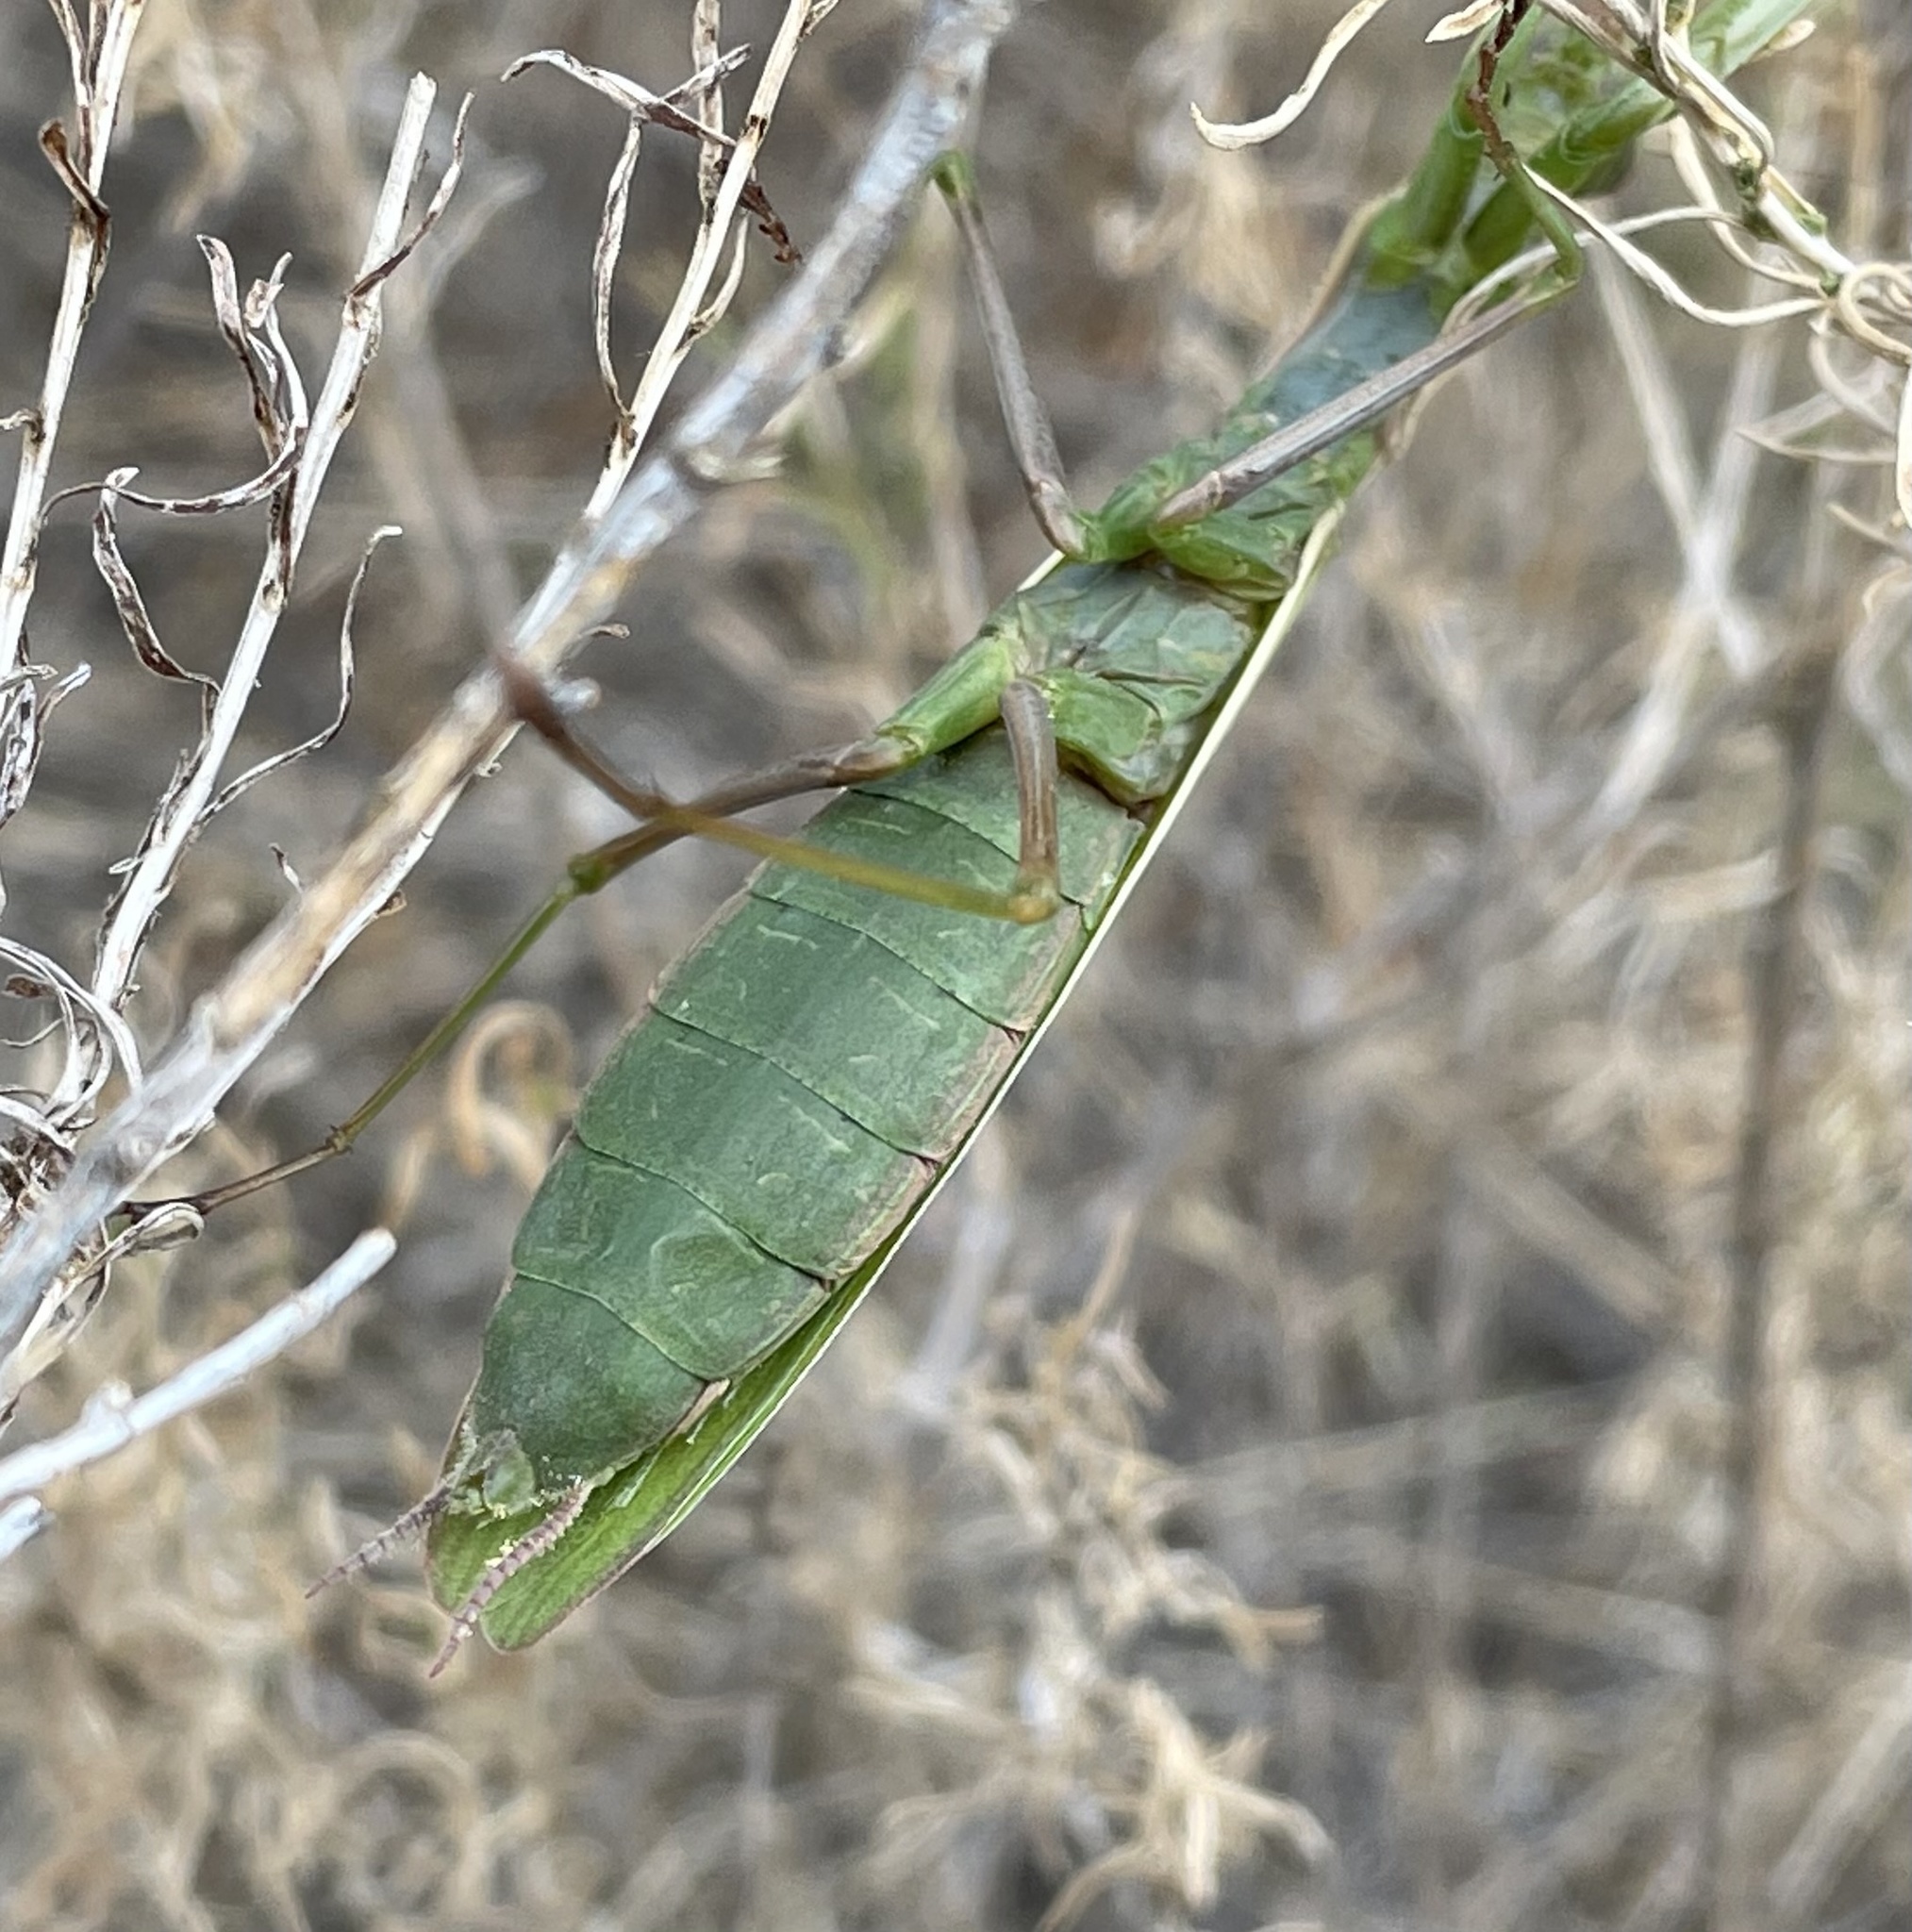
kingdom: Animalia
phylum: Arthropoda
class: Insecta
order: Mantodea
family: Mantidae
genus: Mantis
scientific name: Mantis religiosa
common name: Praying mantis
